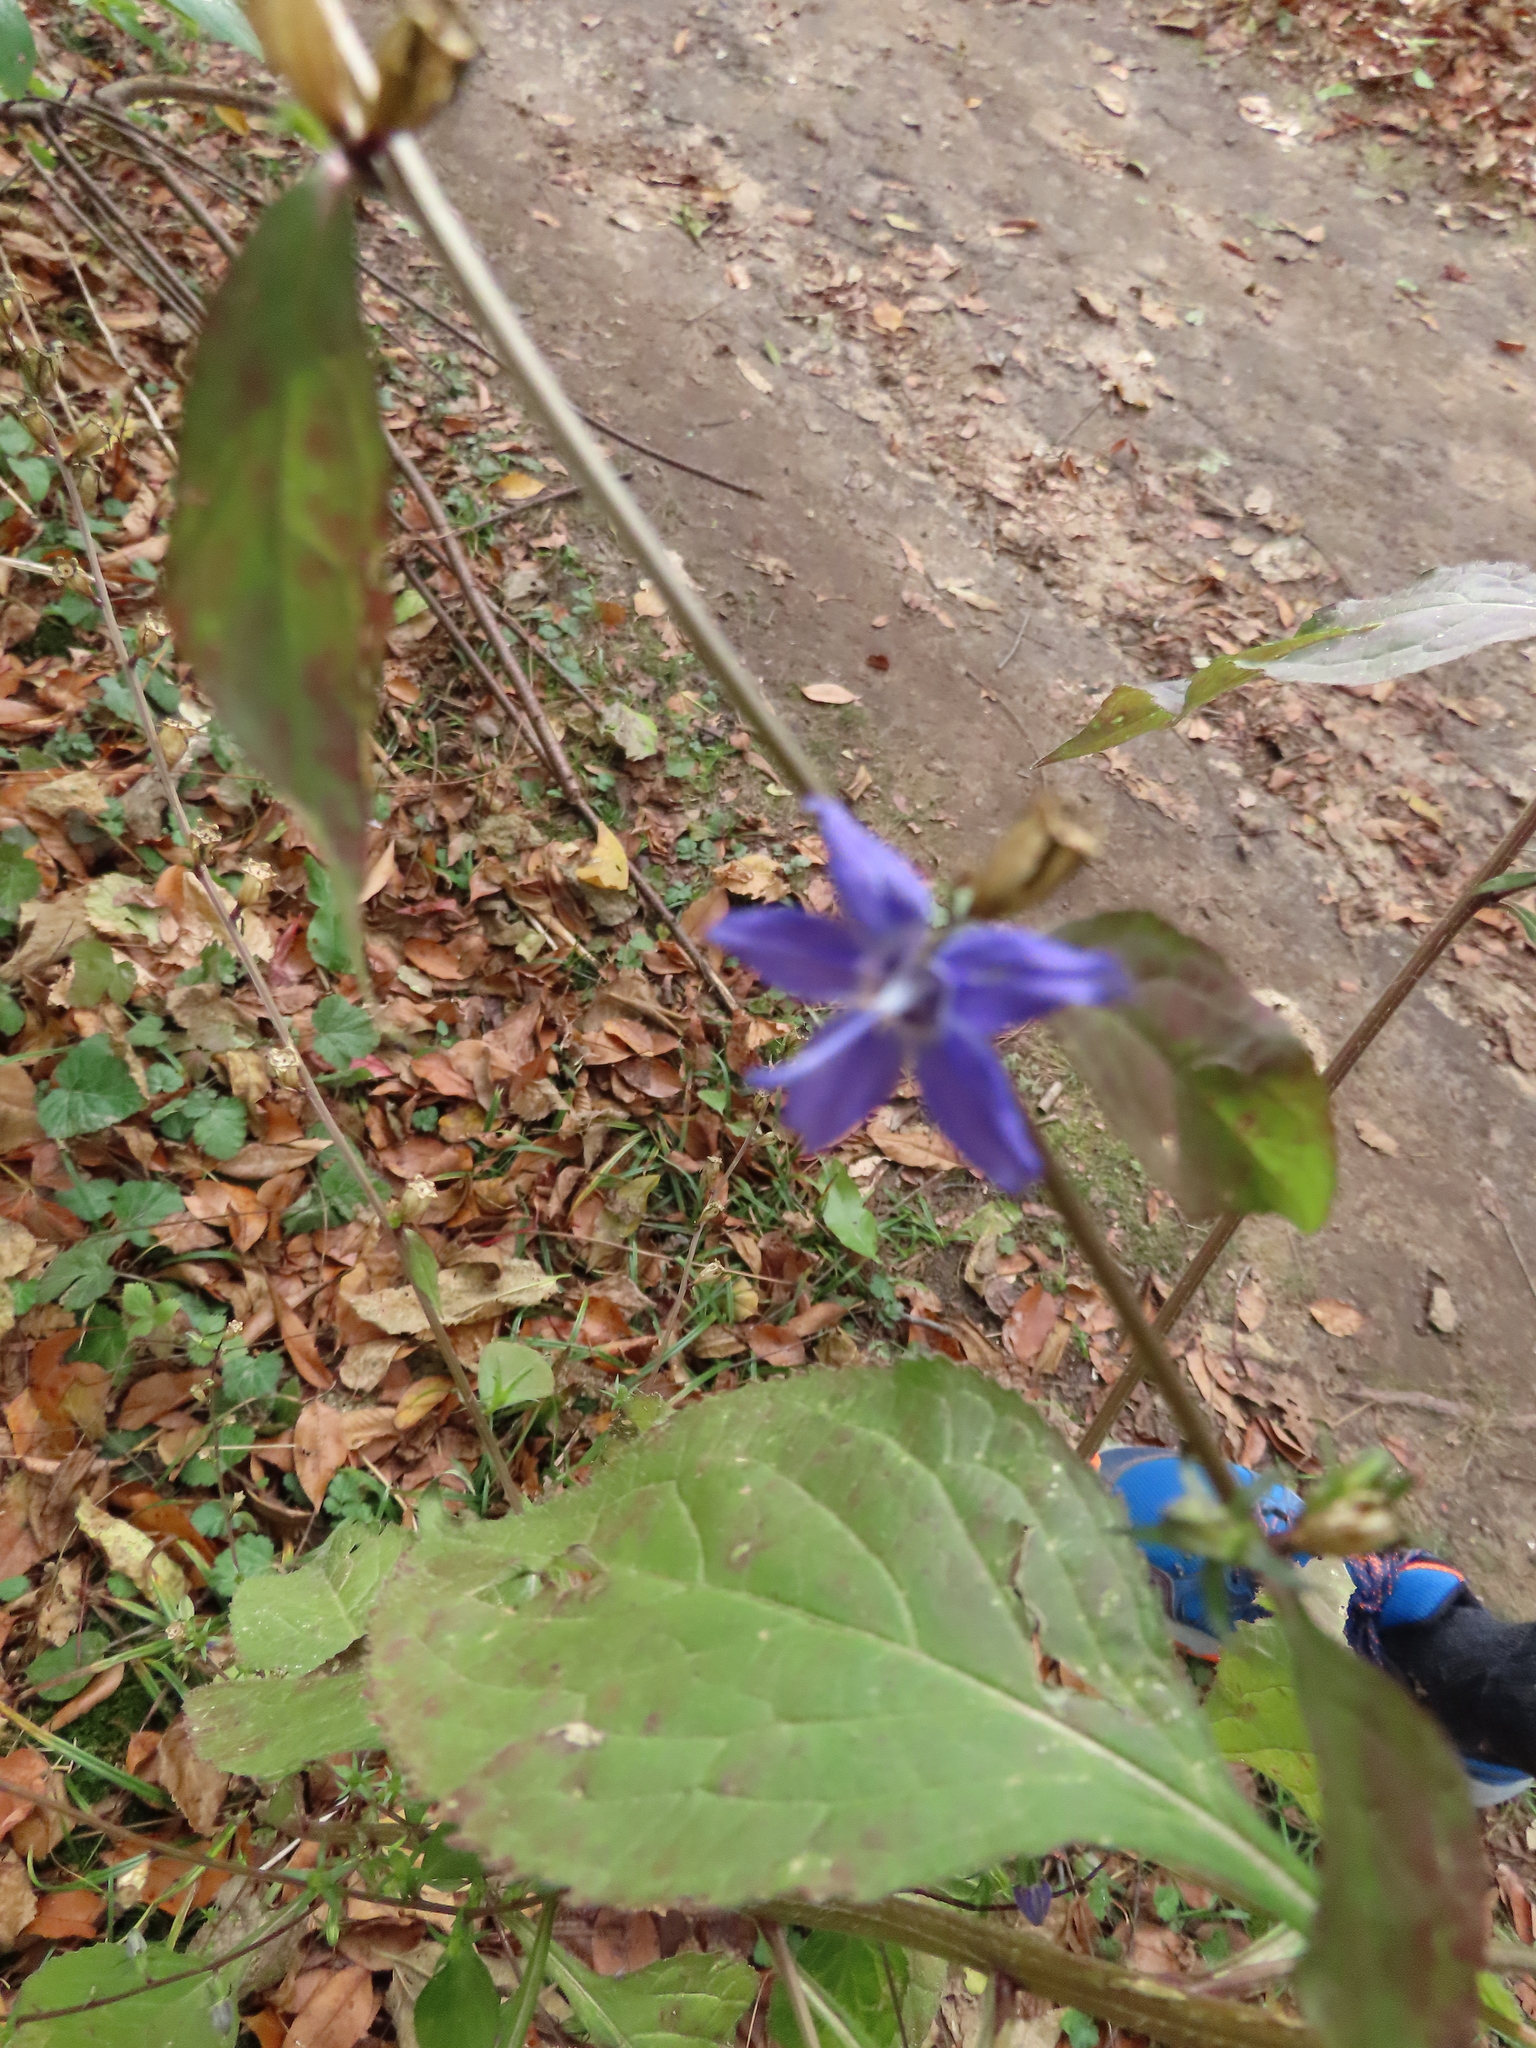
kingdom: Plantae
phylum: Tracheophyta
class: Magnoliopsida
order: Asterales
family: Campanulaceae
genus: Campanulastrum
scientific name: Campanulastrum americanum
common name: American bellflower
